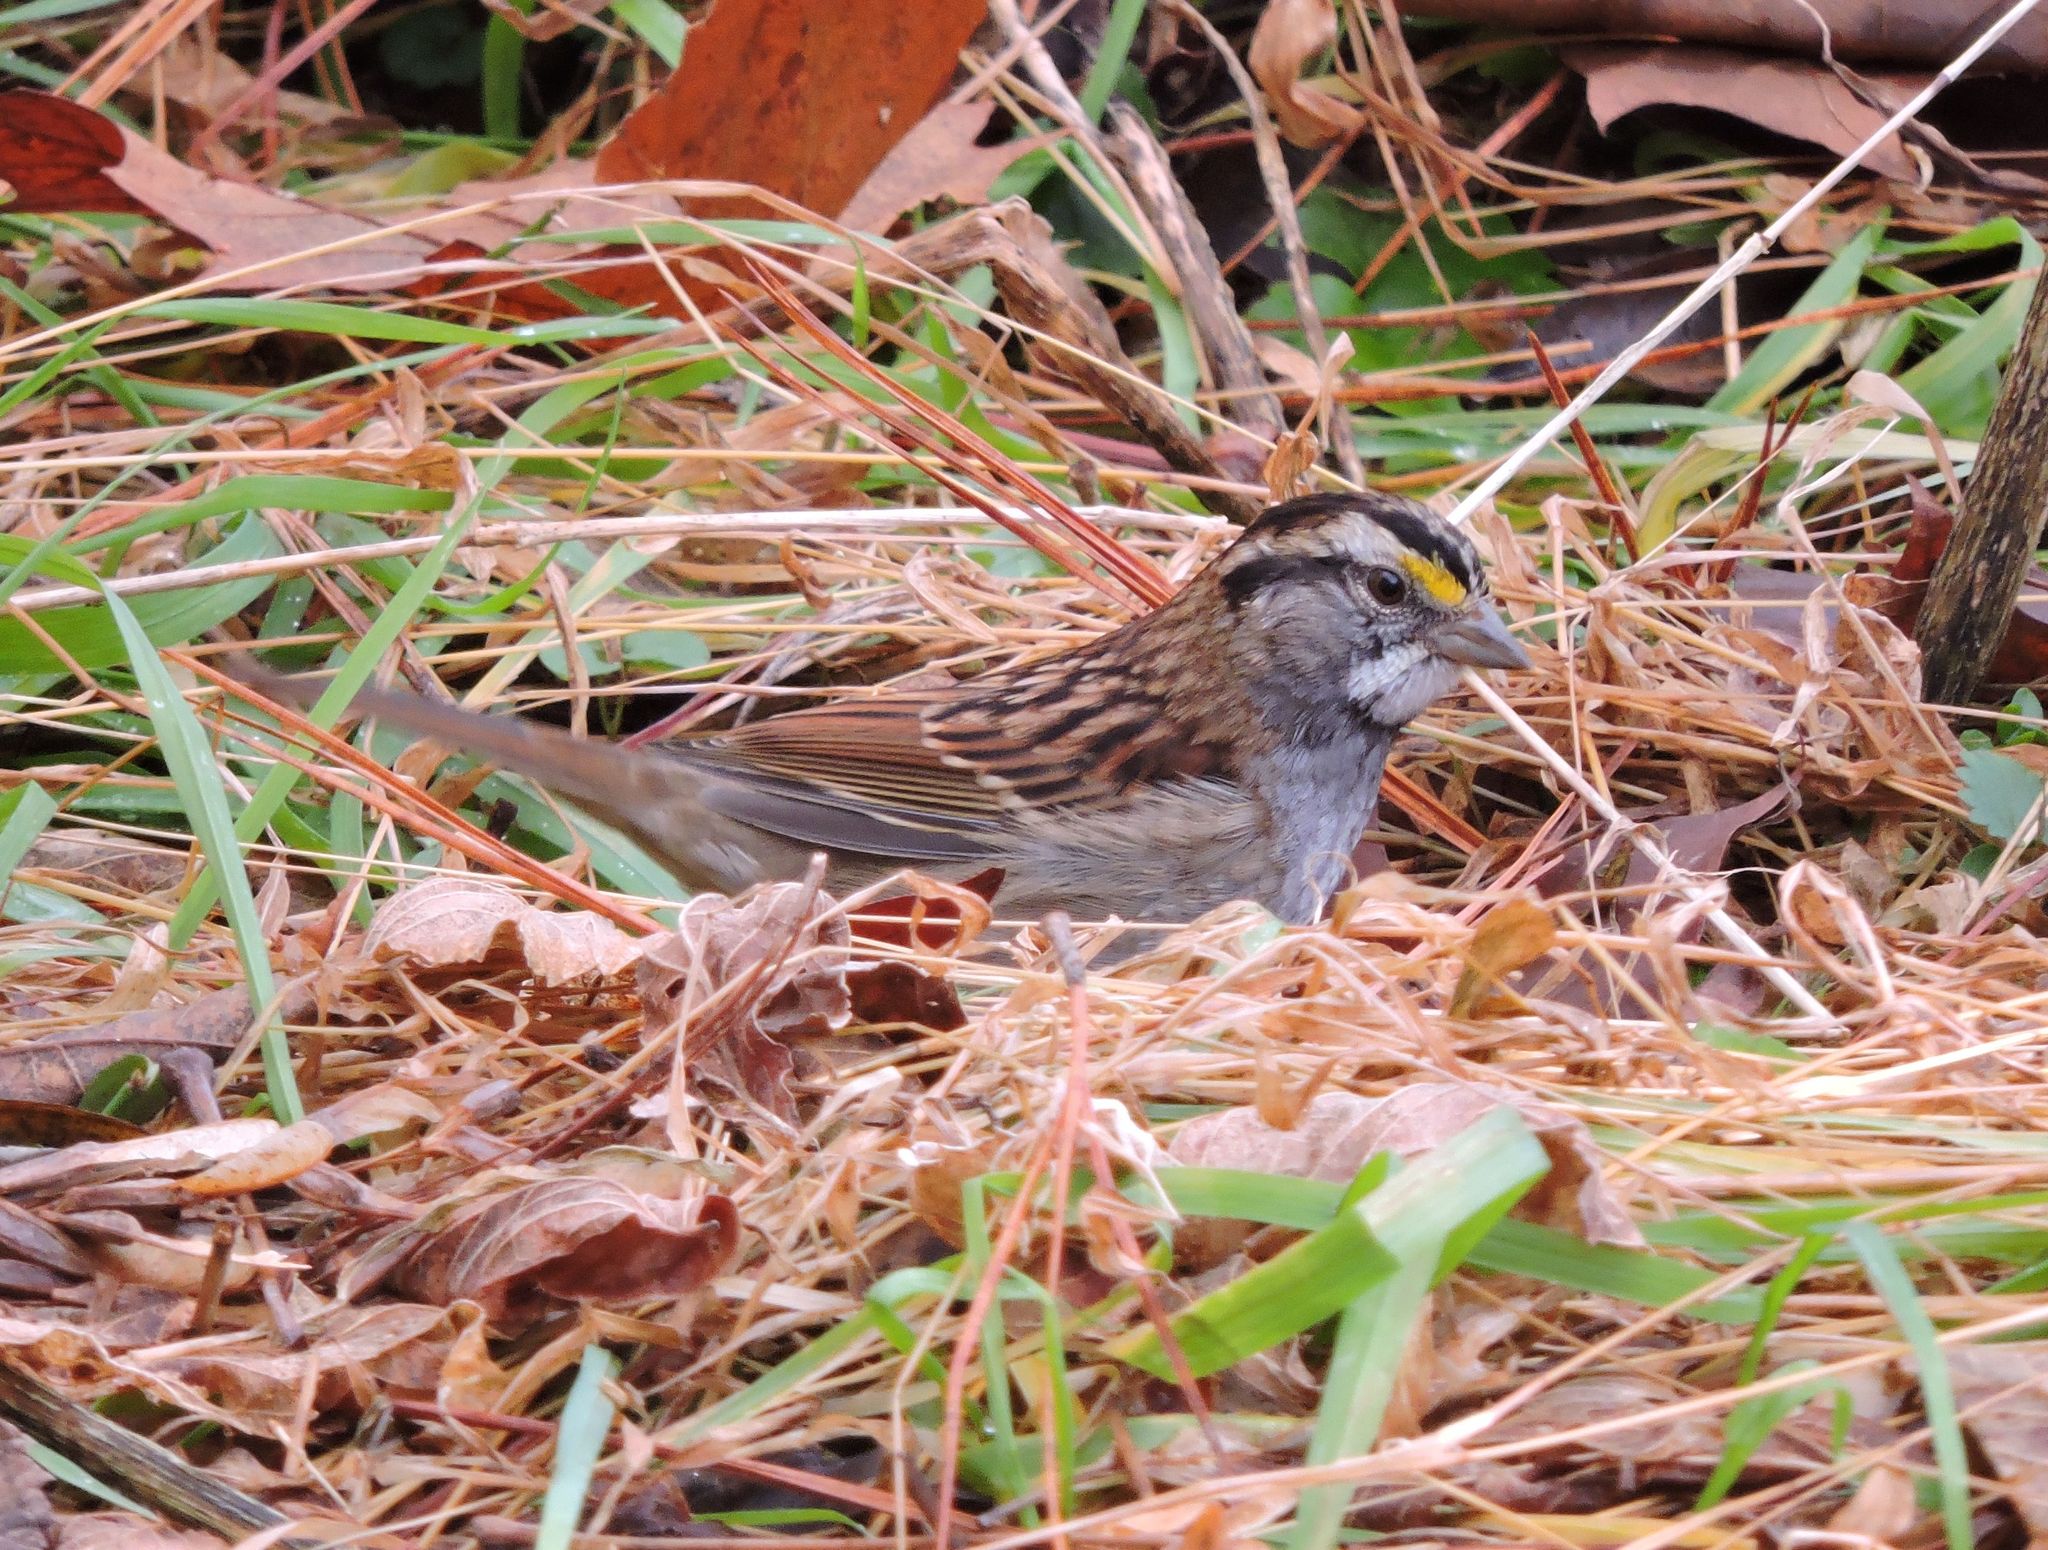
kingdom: Animalia
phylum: Chordata
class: Aves
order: Passeriformes
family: Passerellidae
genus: Zonotrichia
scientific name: Zonotrichia albicollis
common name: White-throated sparrow
